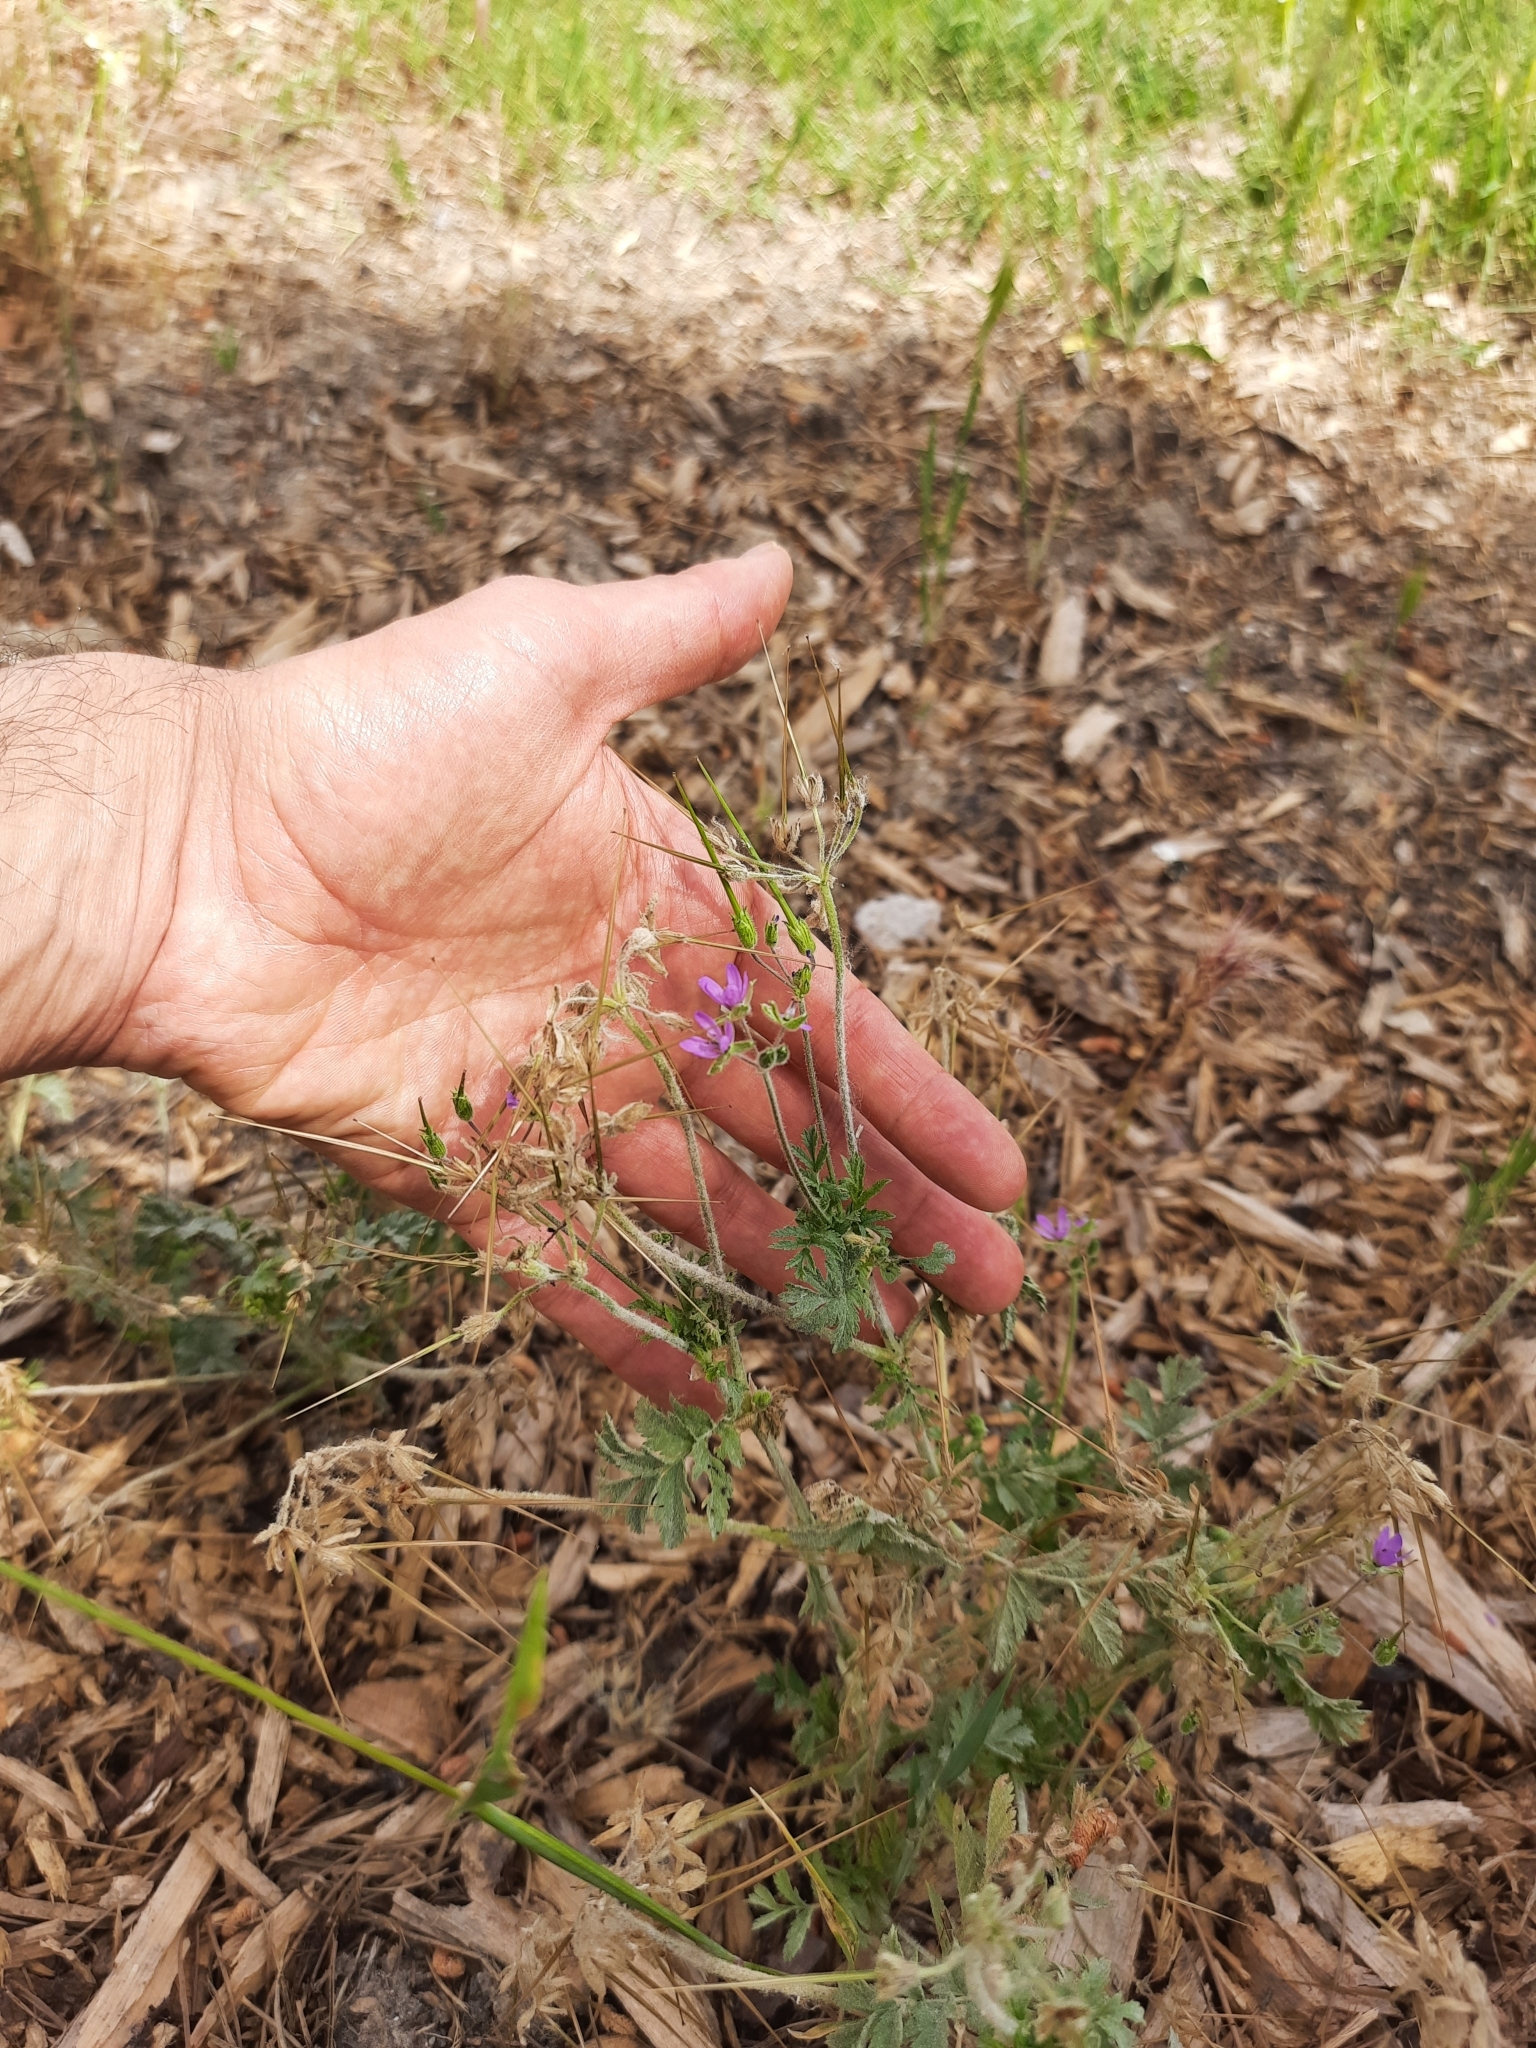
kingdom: Plantae
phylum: Tracheophyta
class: Magnoliopsida
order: Geraniales
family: Geraniaceae
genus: Erodium
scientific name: Erodium moschatum
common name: Musk stork's-bill
